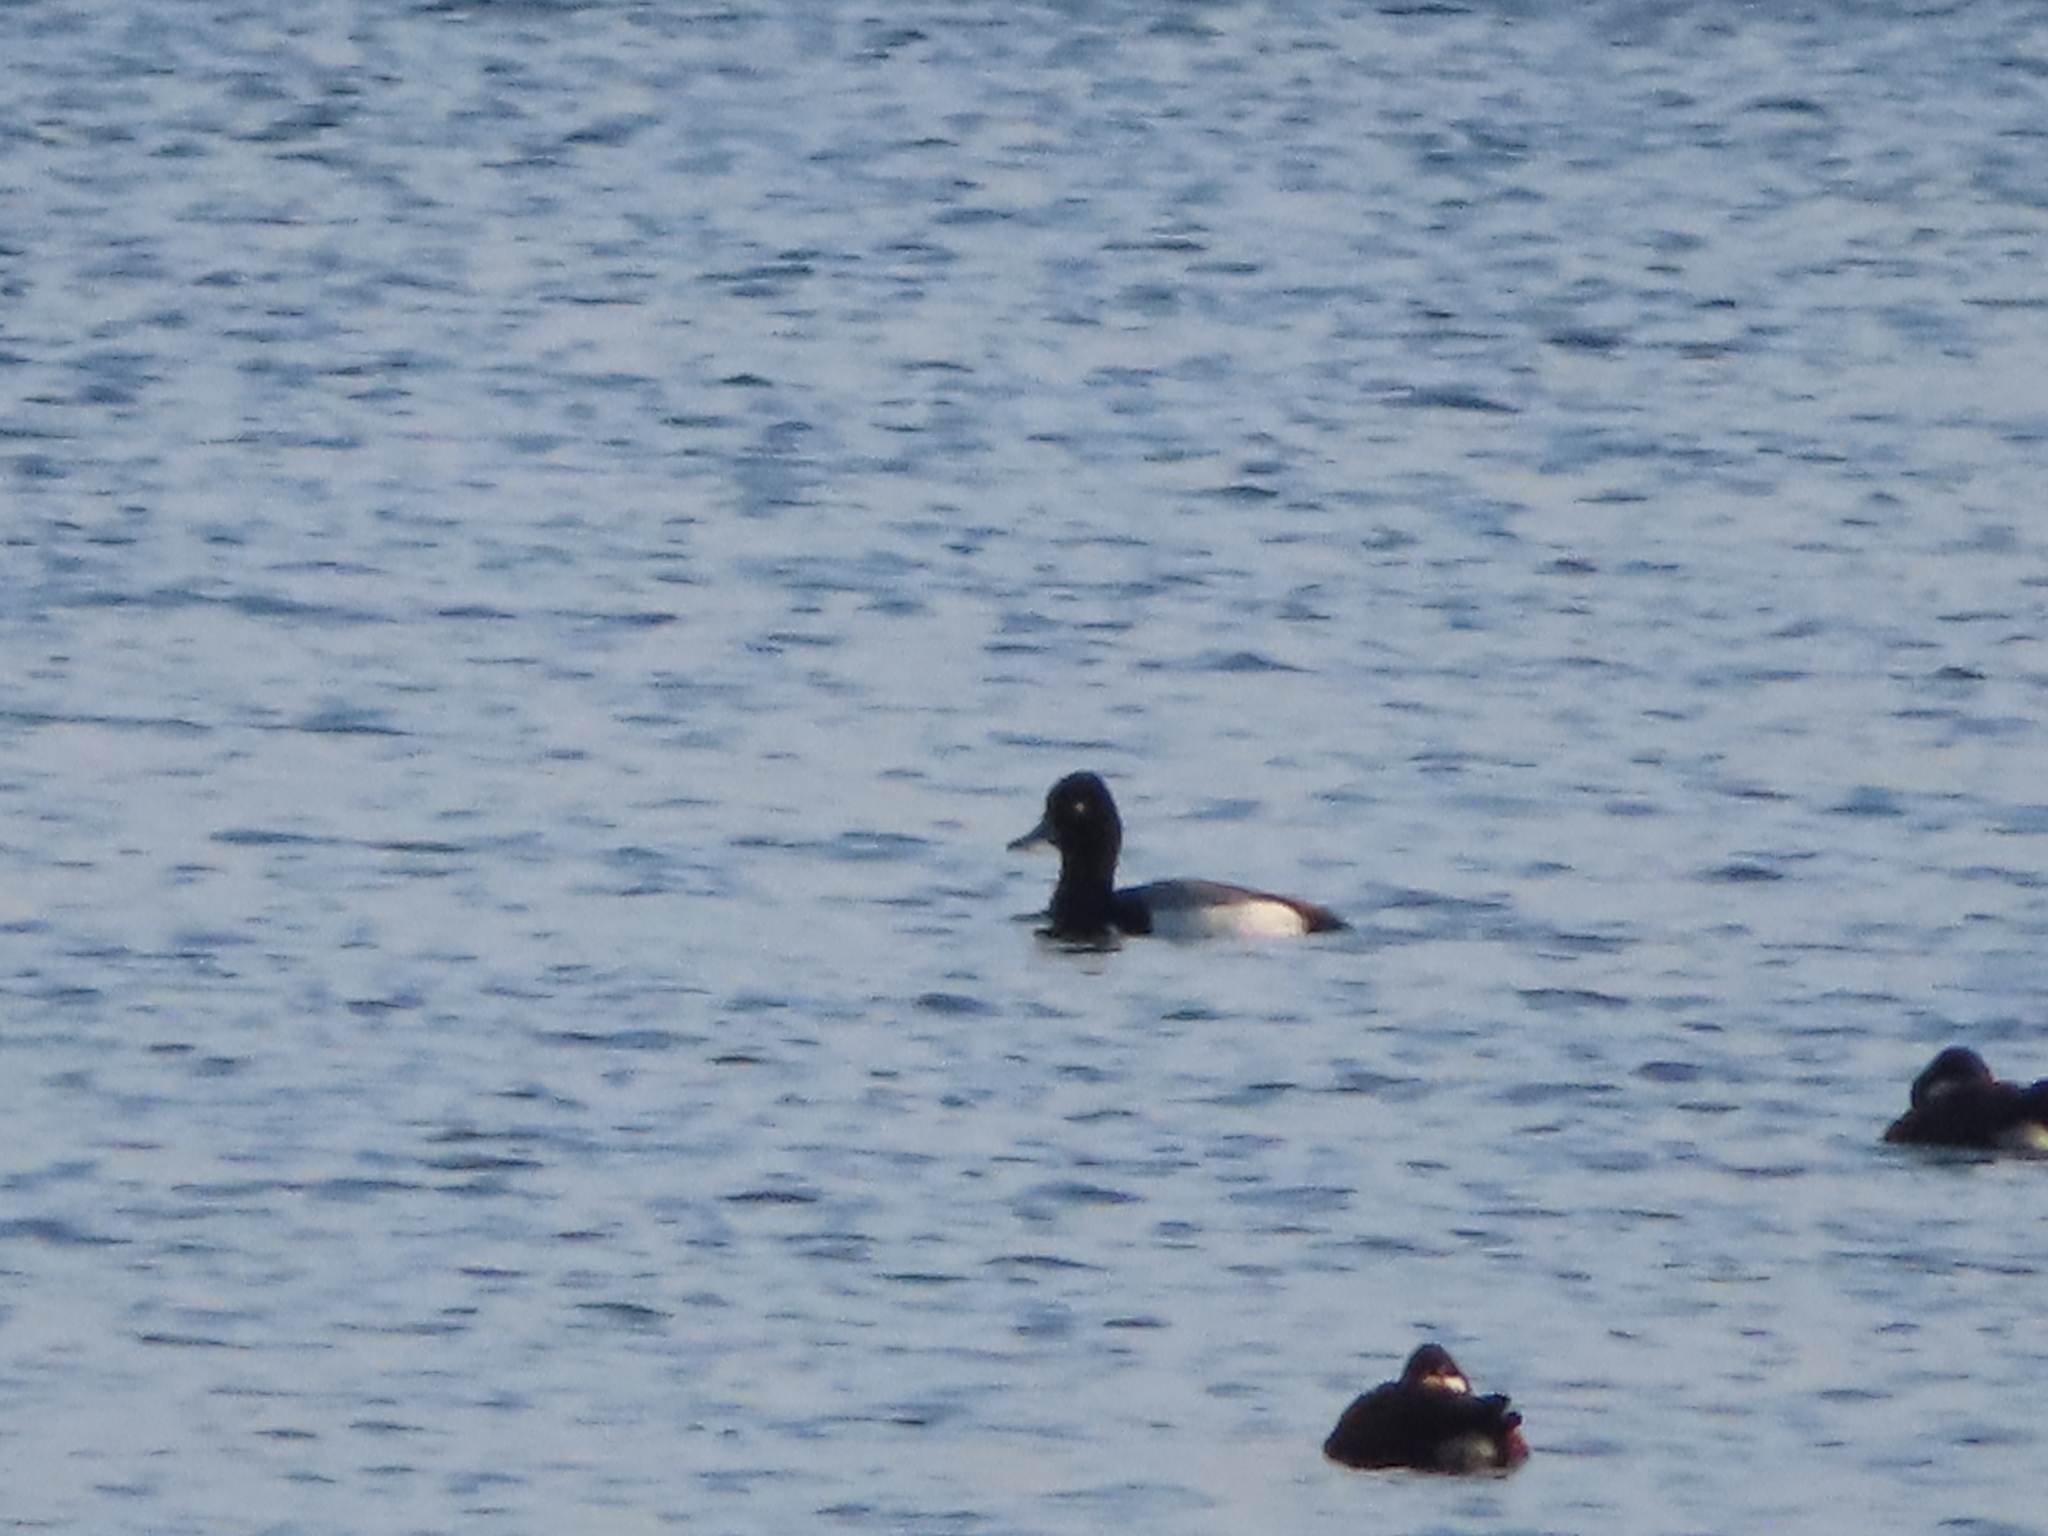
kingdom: Animalia
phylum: Chordata
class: Aves
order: Anseriformes
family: Anatidae
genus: Aythya
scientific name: Aythya affinis
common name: Lesser scaup
